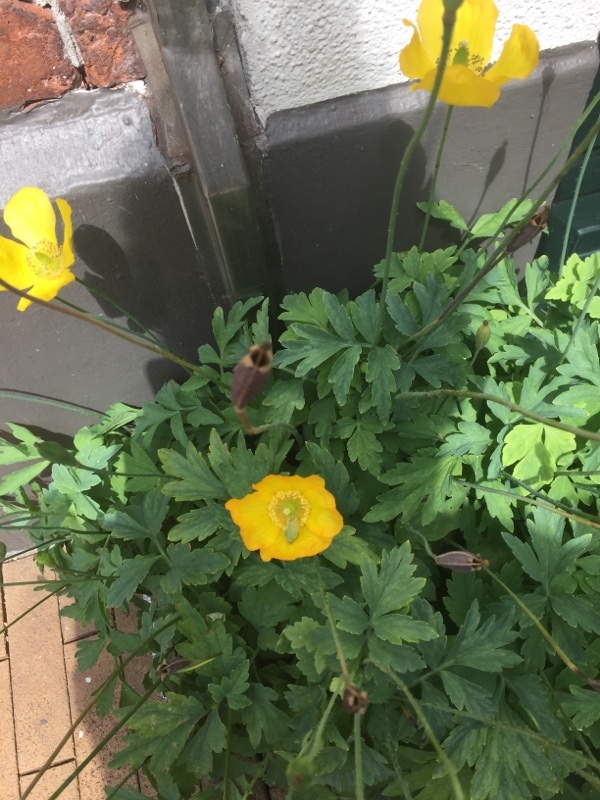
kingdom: Plantae
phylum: Tracheophyta
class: Magnoliopsida
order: Ranunculales
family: Papaveraceae
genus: Papaver
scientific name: Papaver cambricum
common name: Poppy
